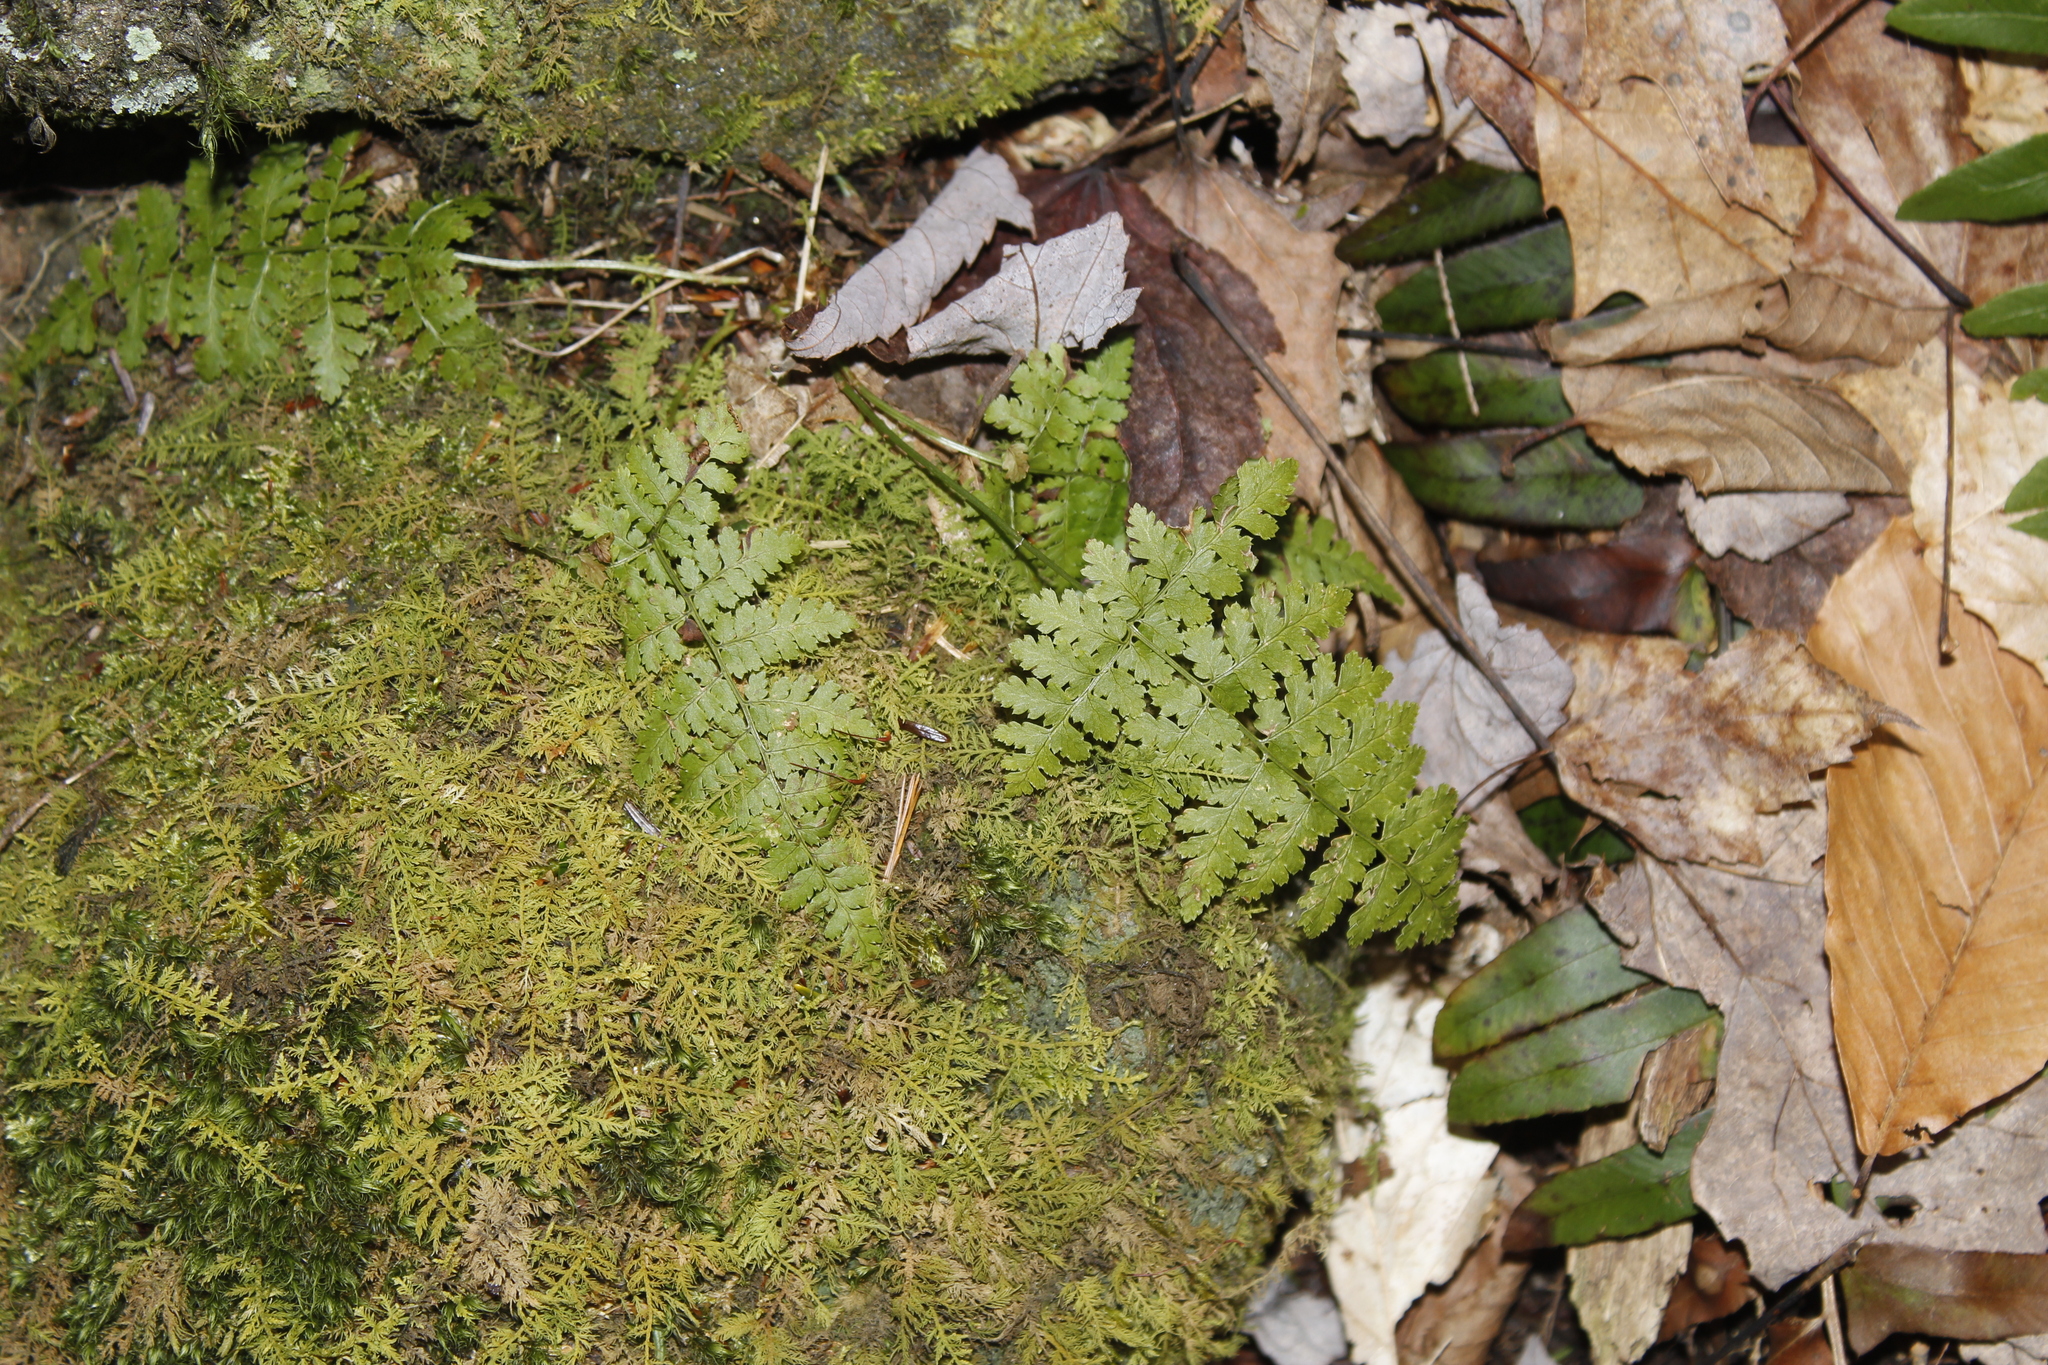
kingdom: Plantae
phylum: Tracheophyta
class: Polypodiopsida
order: Polypodiales
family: Dryopteridaceae
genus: Dryopteris
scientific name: Dryopteris intermedia
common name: Evergreen wood fern
